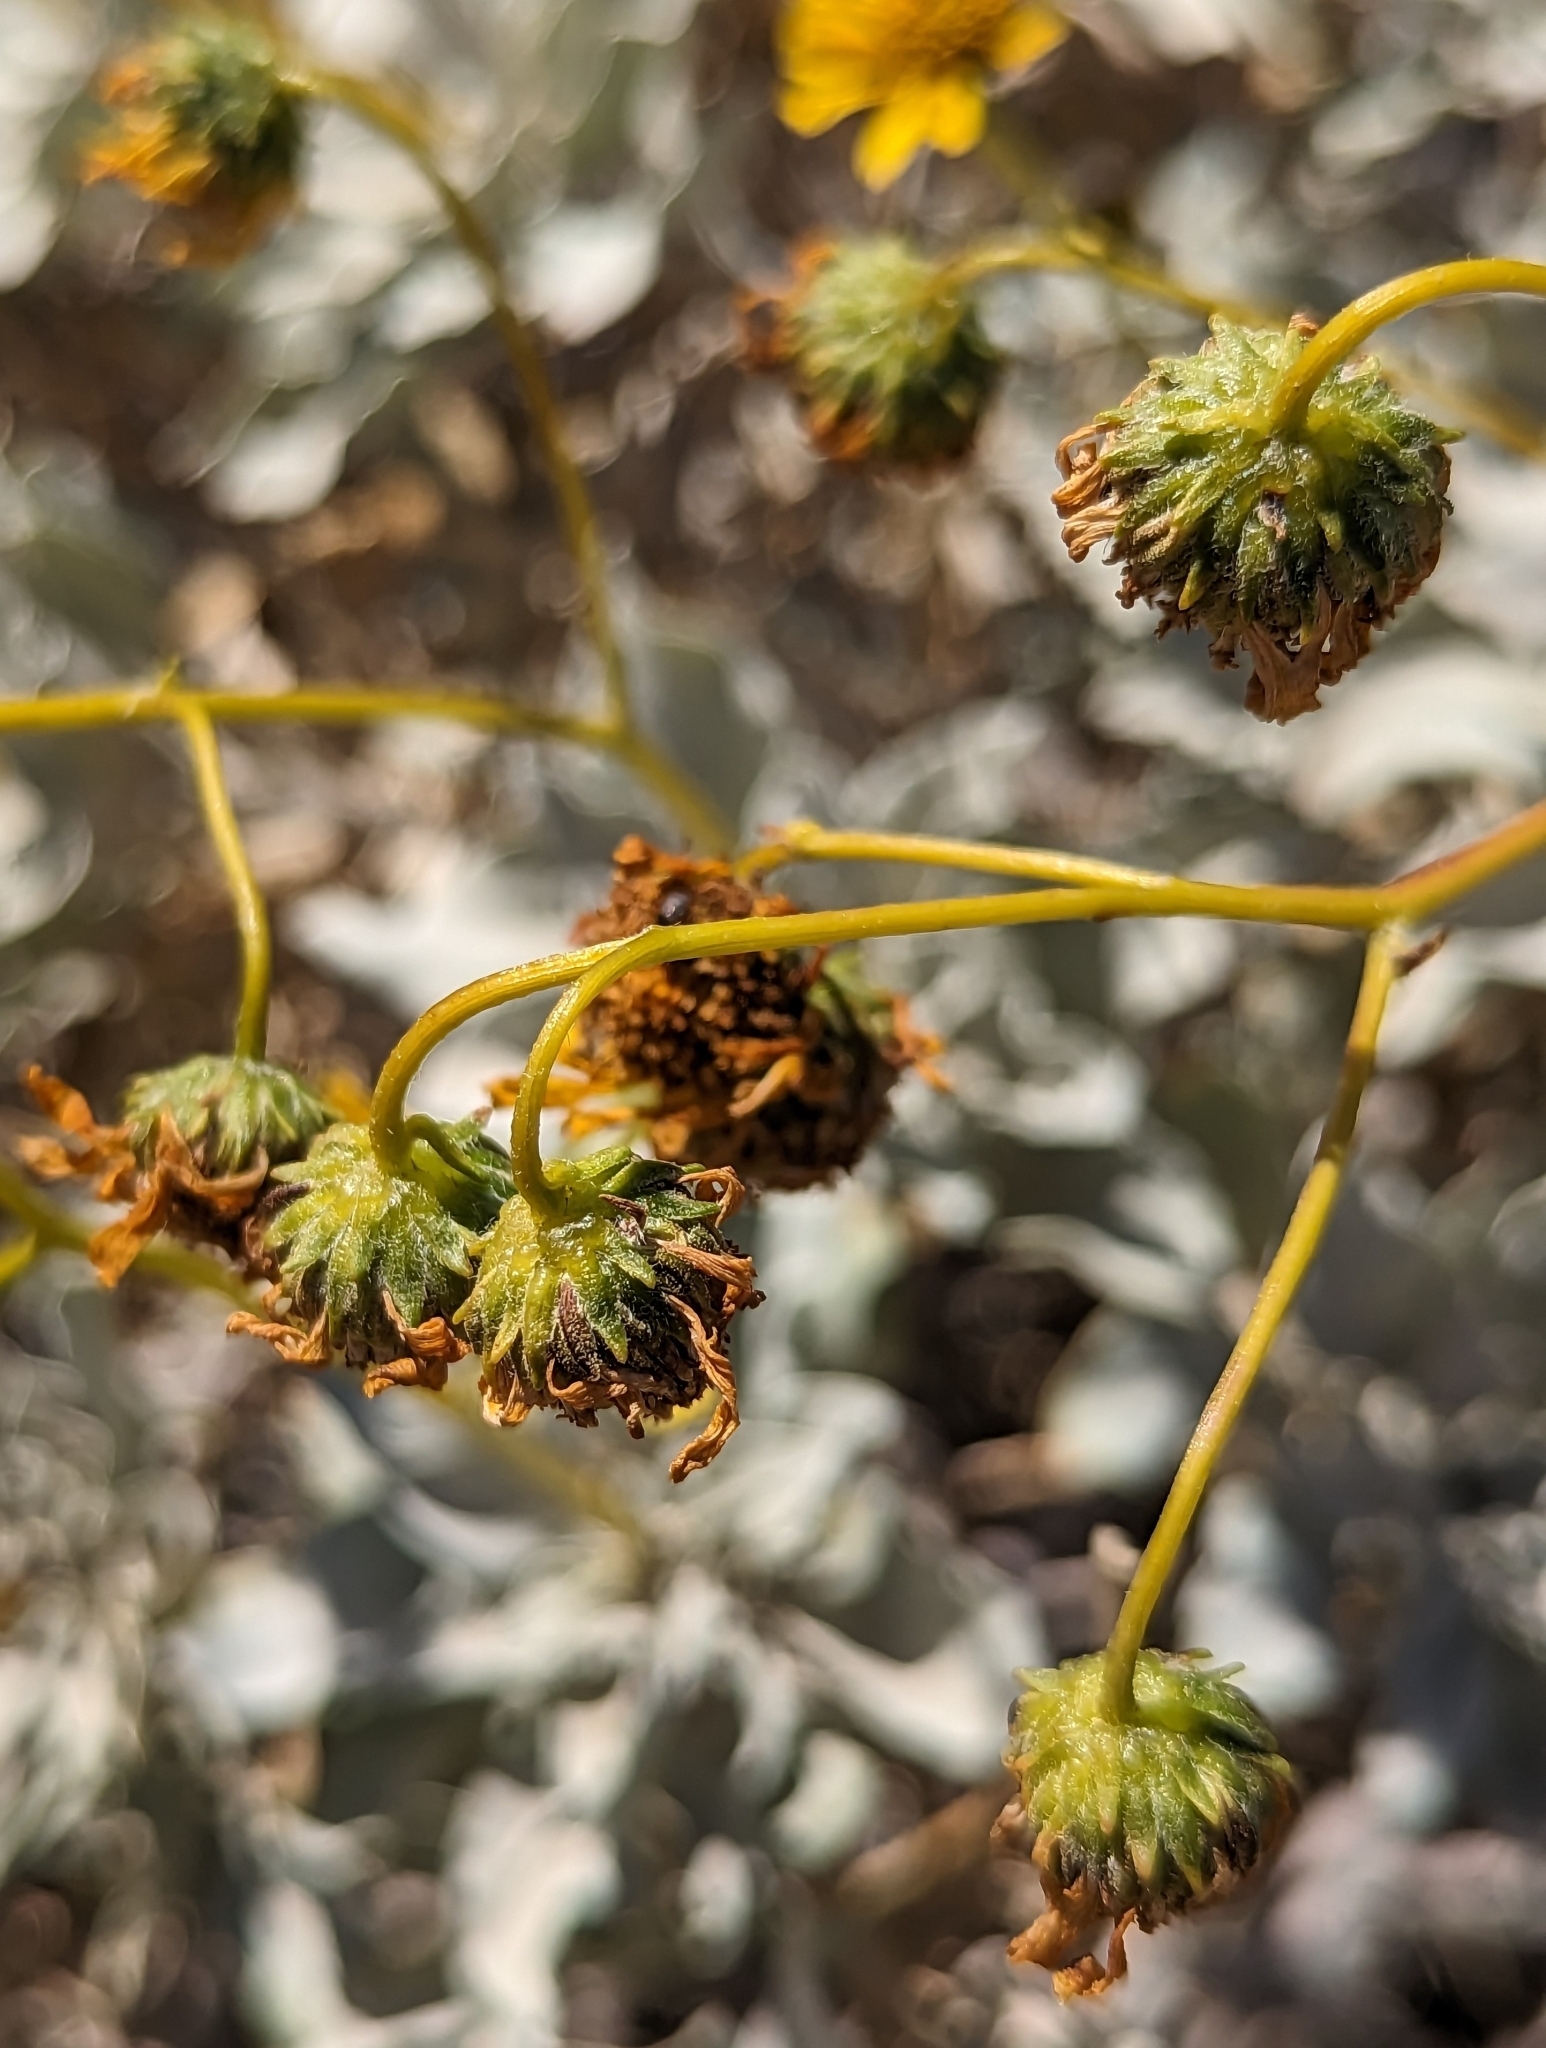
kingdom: Plantae
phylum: Tracheophyta
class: Magnoliopsida
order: Asterales
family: Asteraceae
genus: Encelia
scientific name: Encelia farinosa
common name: Brittlebush
